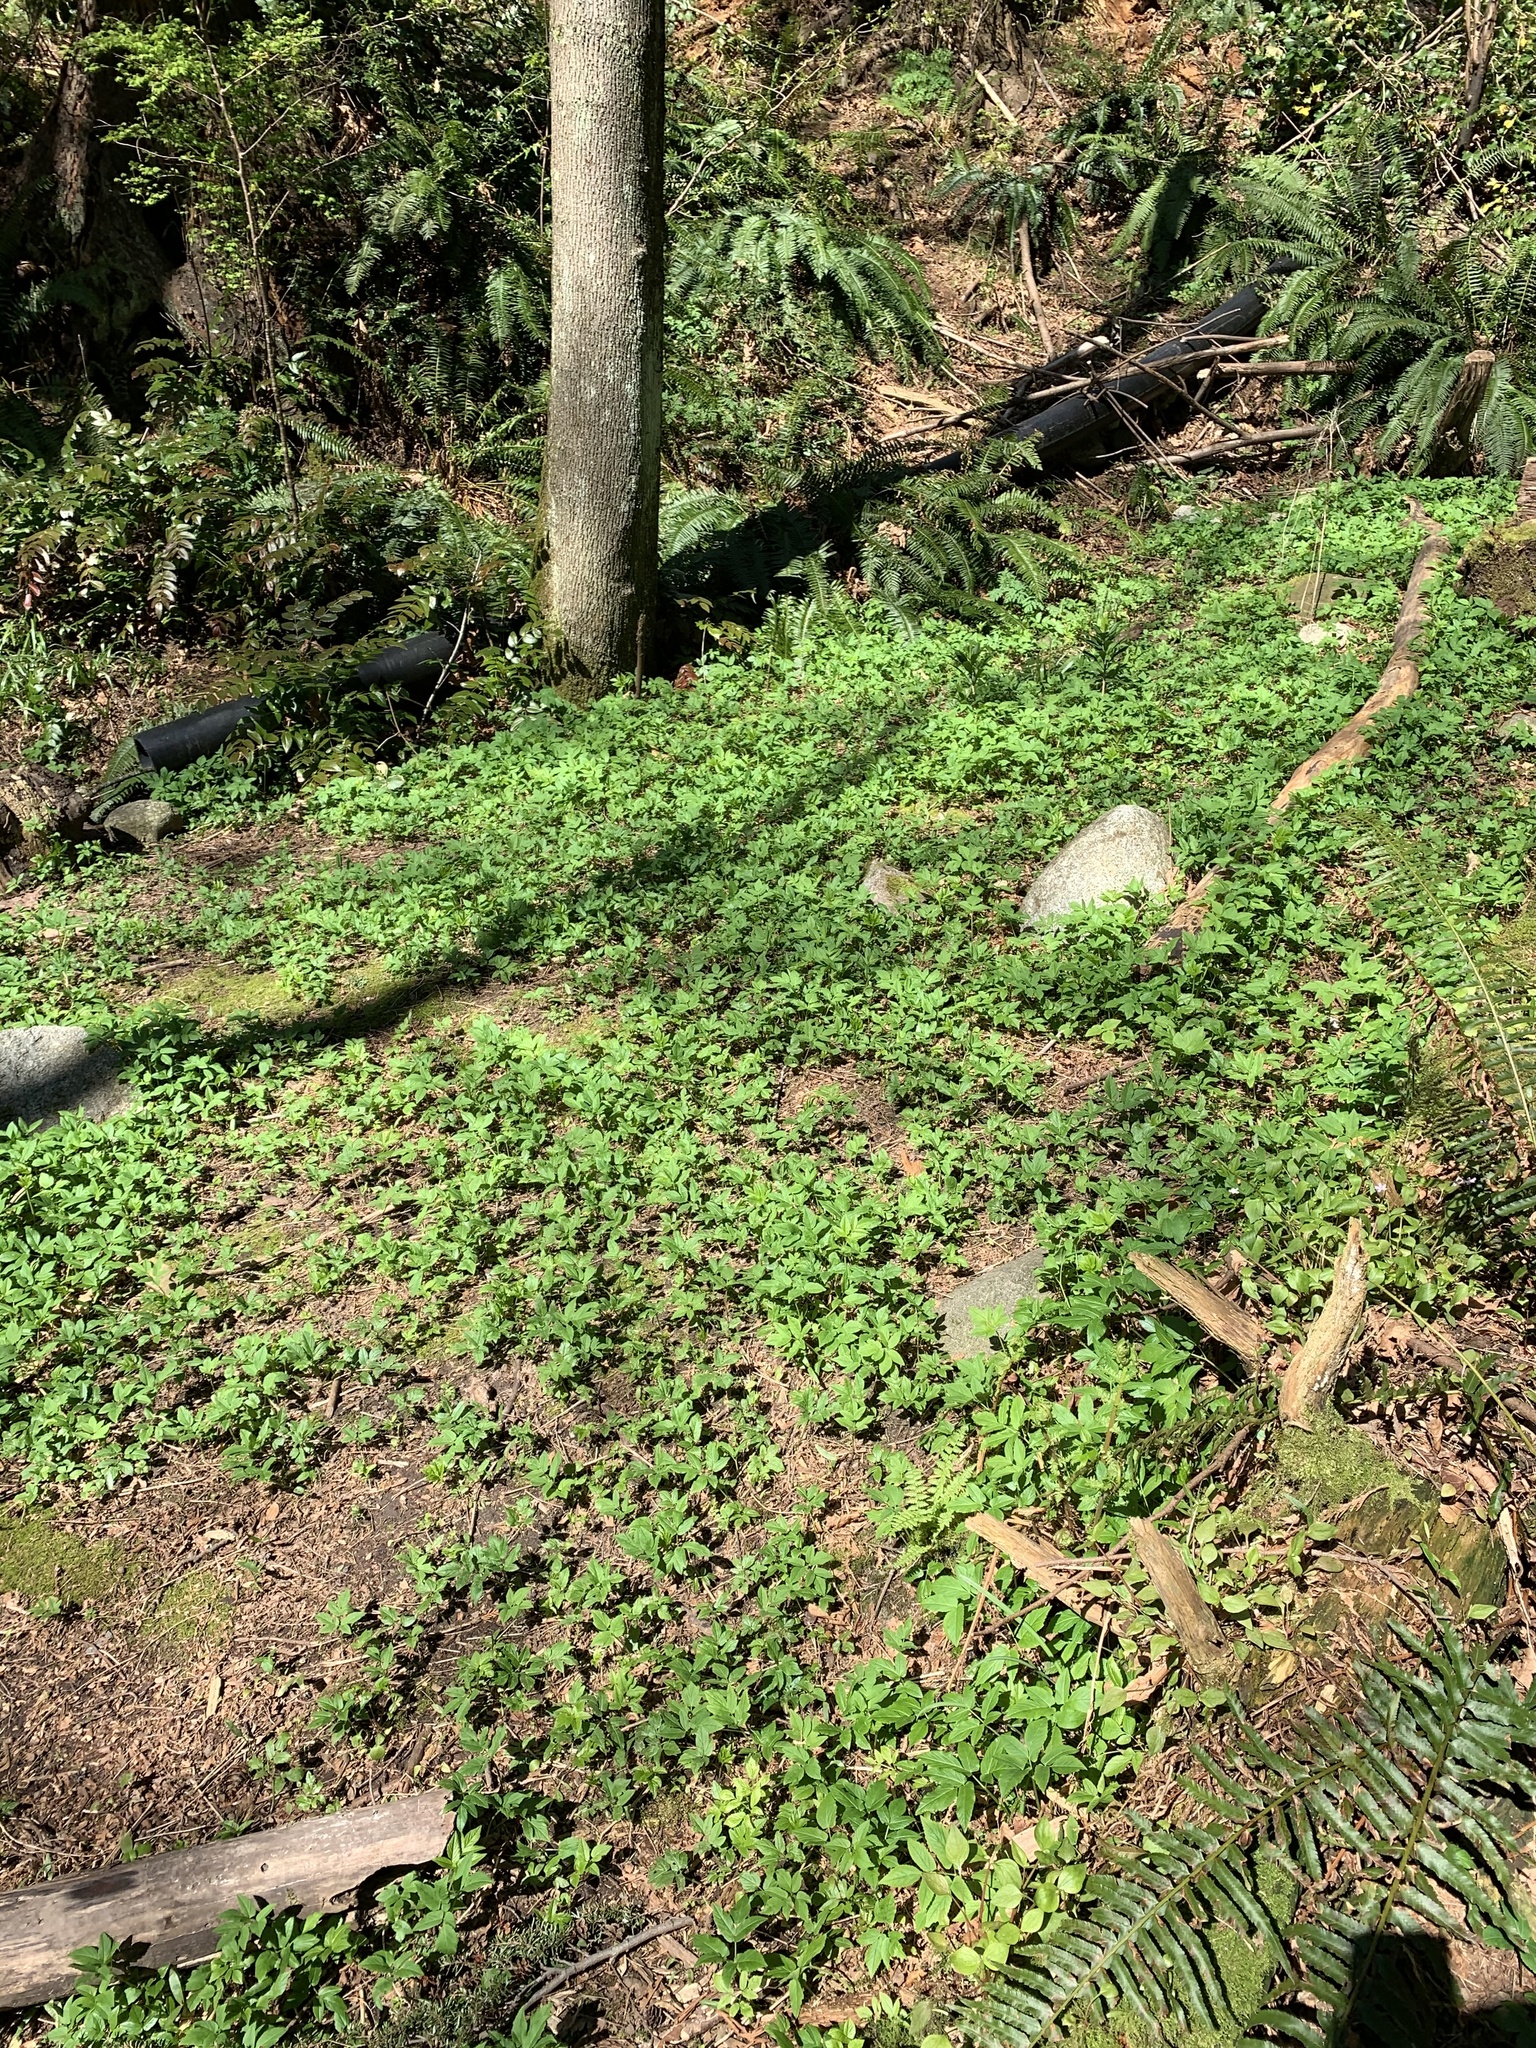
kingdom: Plantae
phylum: Tracheophyta
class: Magnoliopsida
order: Apiales
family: Apiaceae
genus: Aegopodium
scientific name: Aegopodium podagraria
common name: Ground-elder
